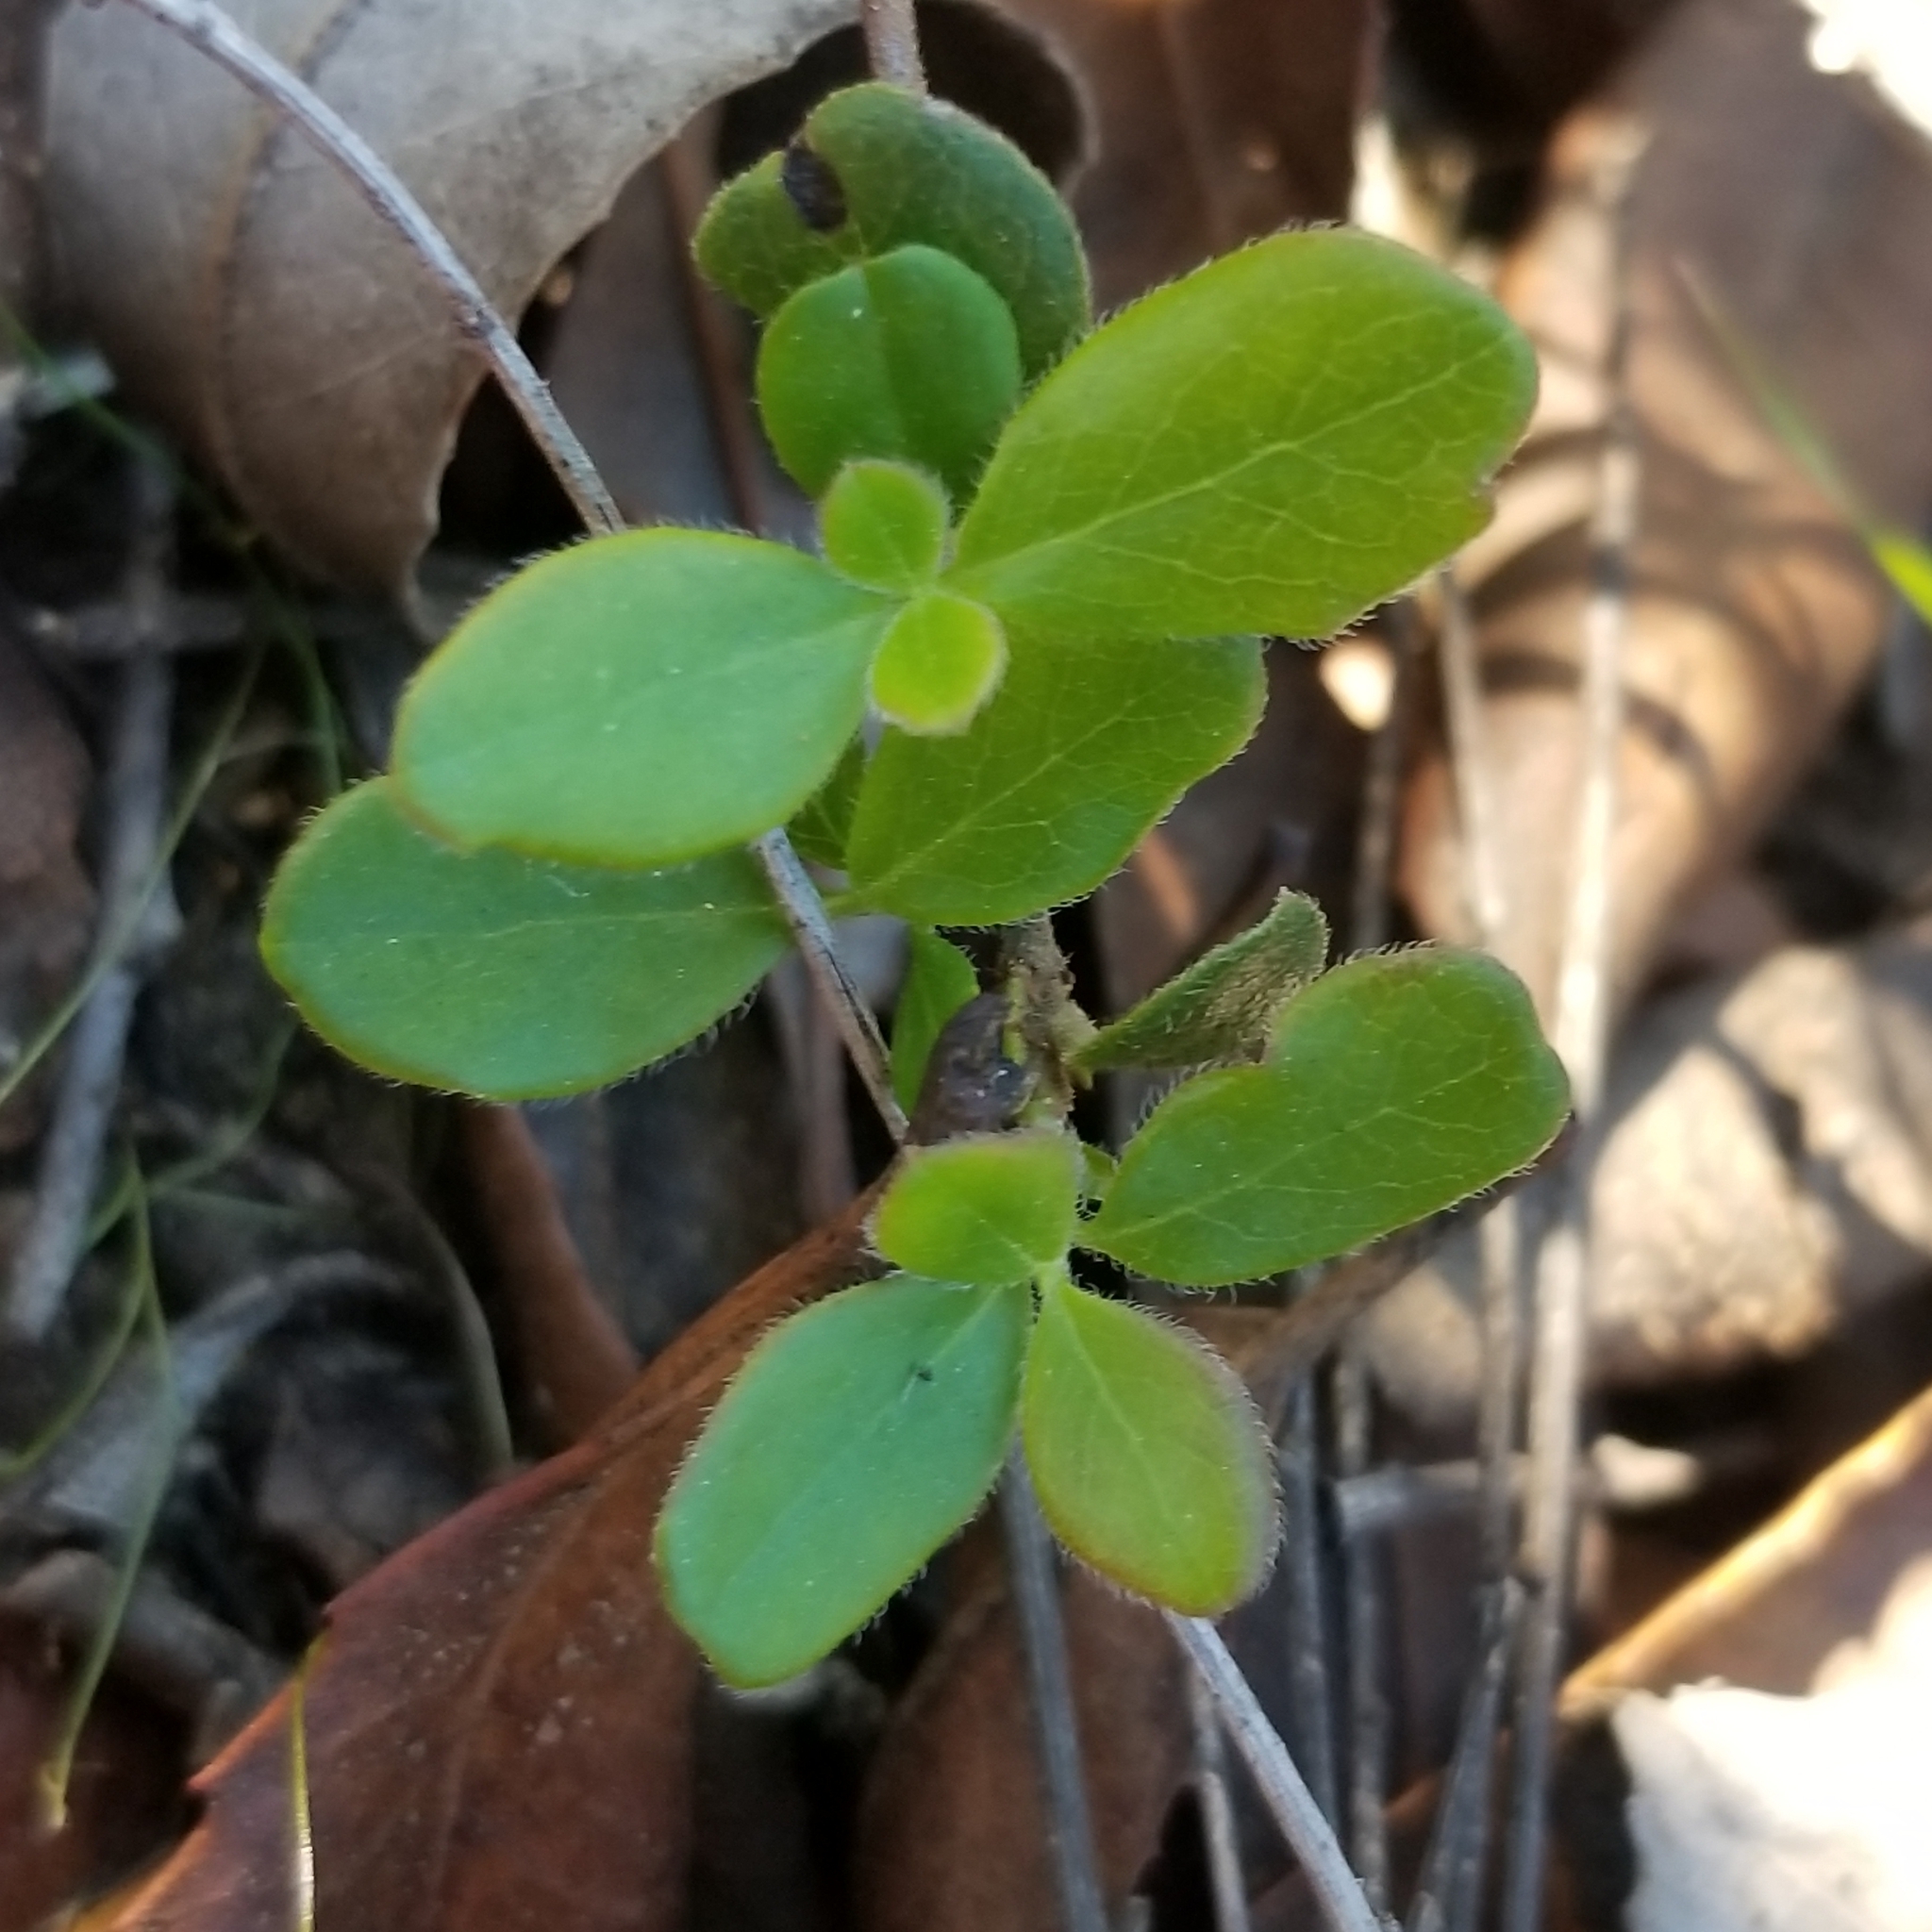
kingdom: Plantae
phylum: Tracheophyta
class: Magnoliopsida
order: Dipsacales
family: Caprifoliaceae
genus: Lonicera
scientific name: Lonicera subspicata
